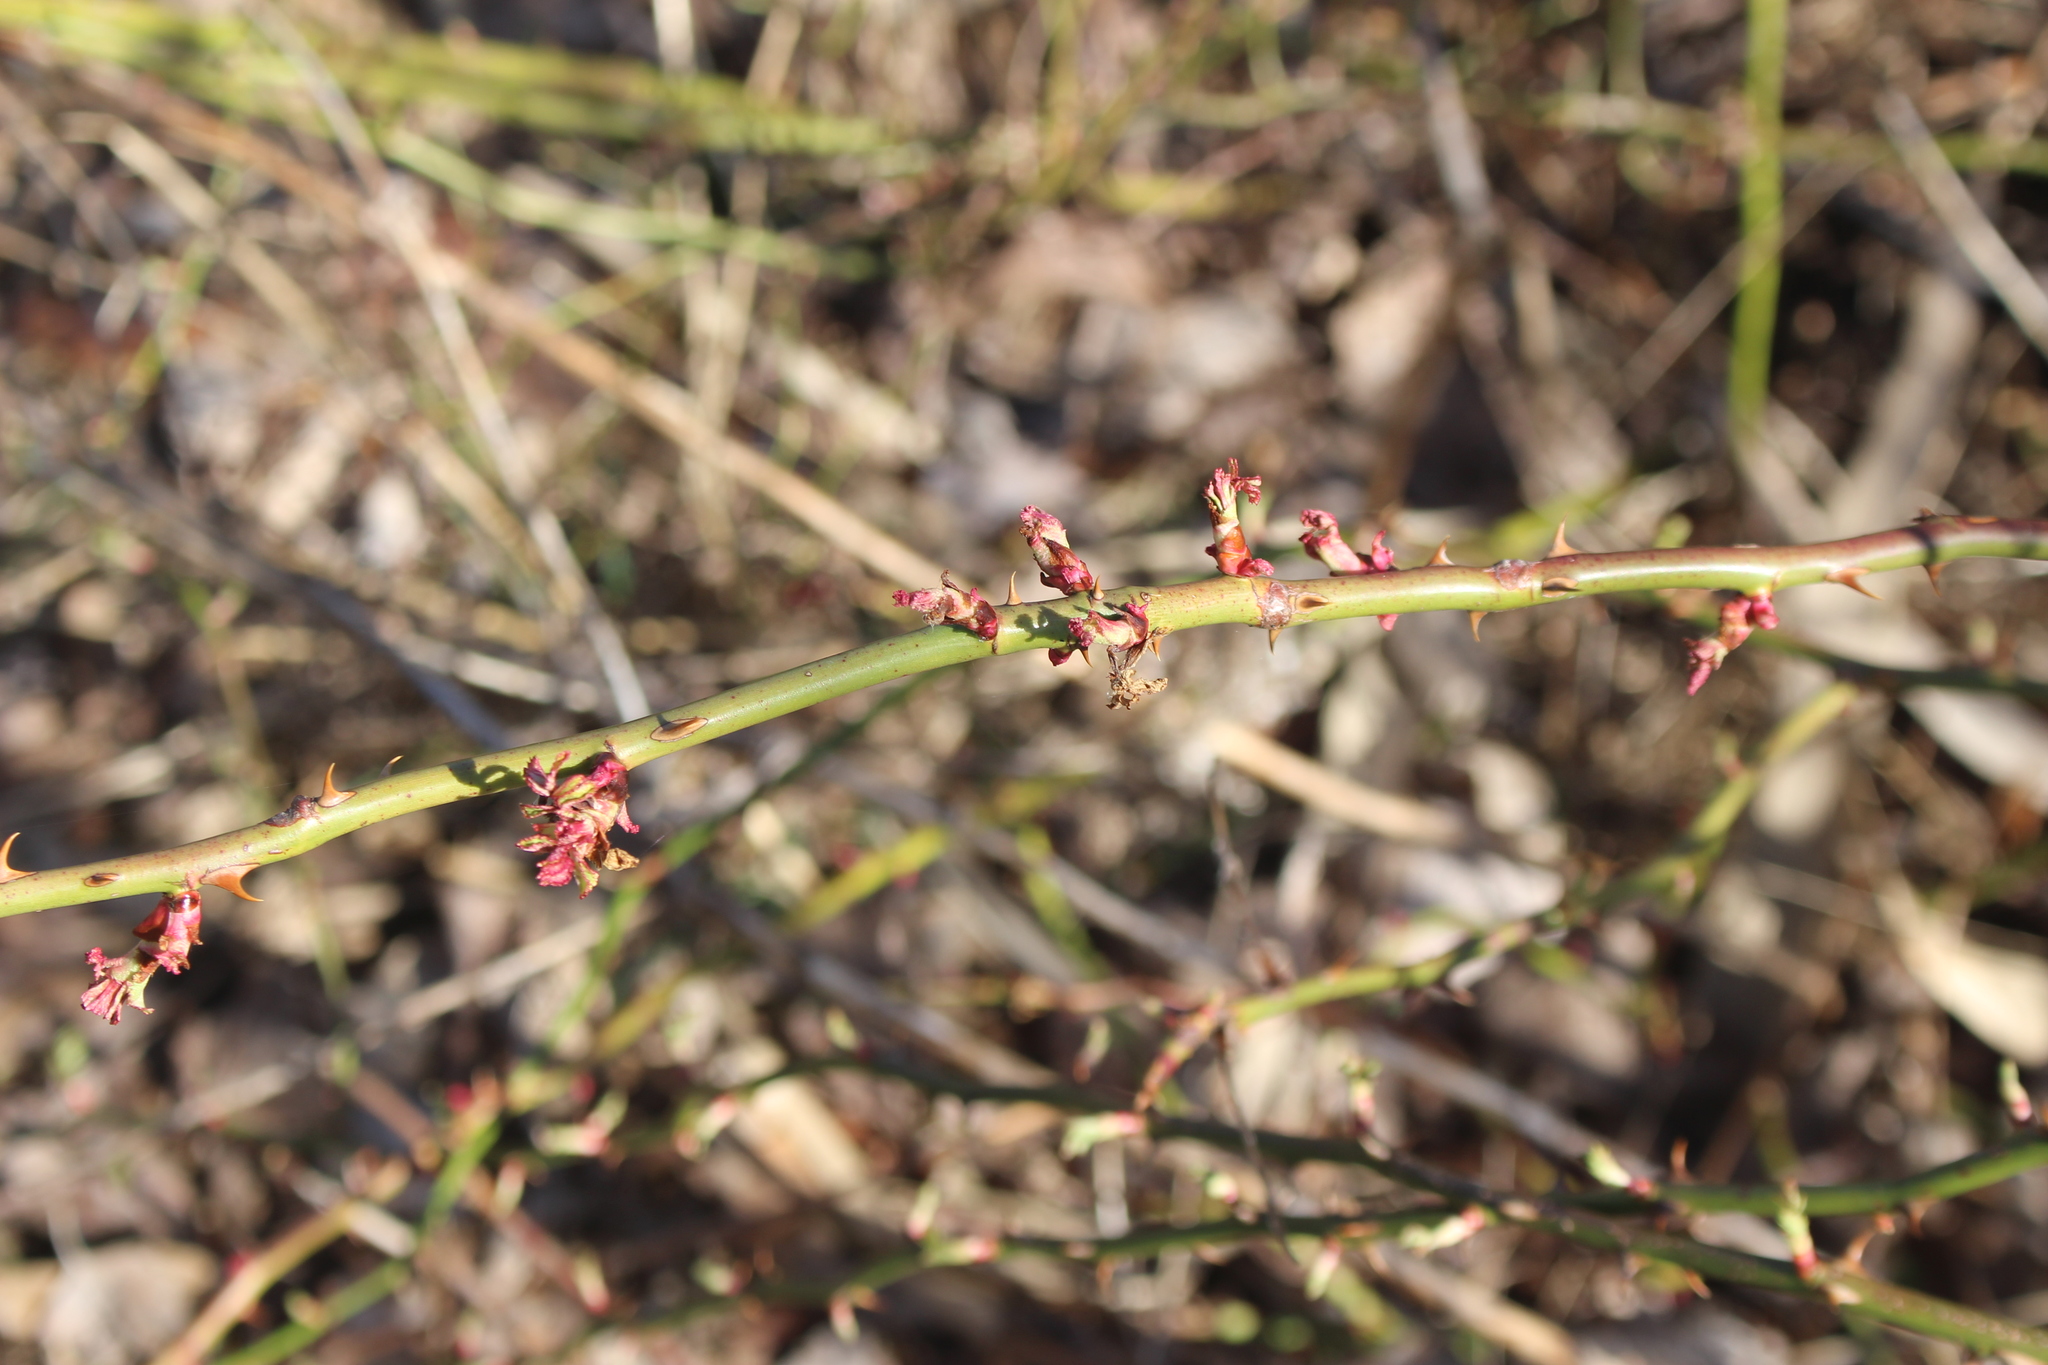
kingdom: Plantae
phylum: Tracheophyta
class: Magnoliopsida
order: Rosales
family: Rosaceae
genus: Rosa
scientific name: Rosa multiflora
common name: Multiflora rose
